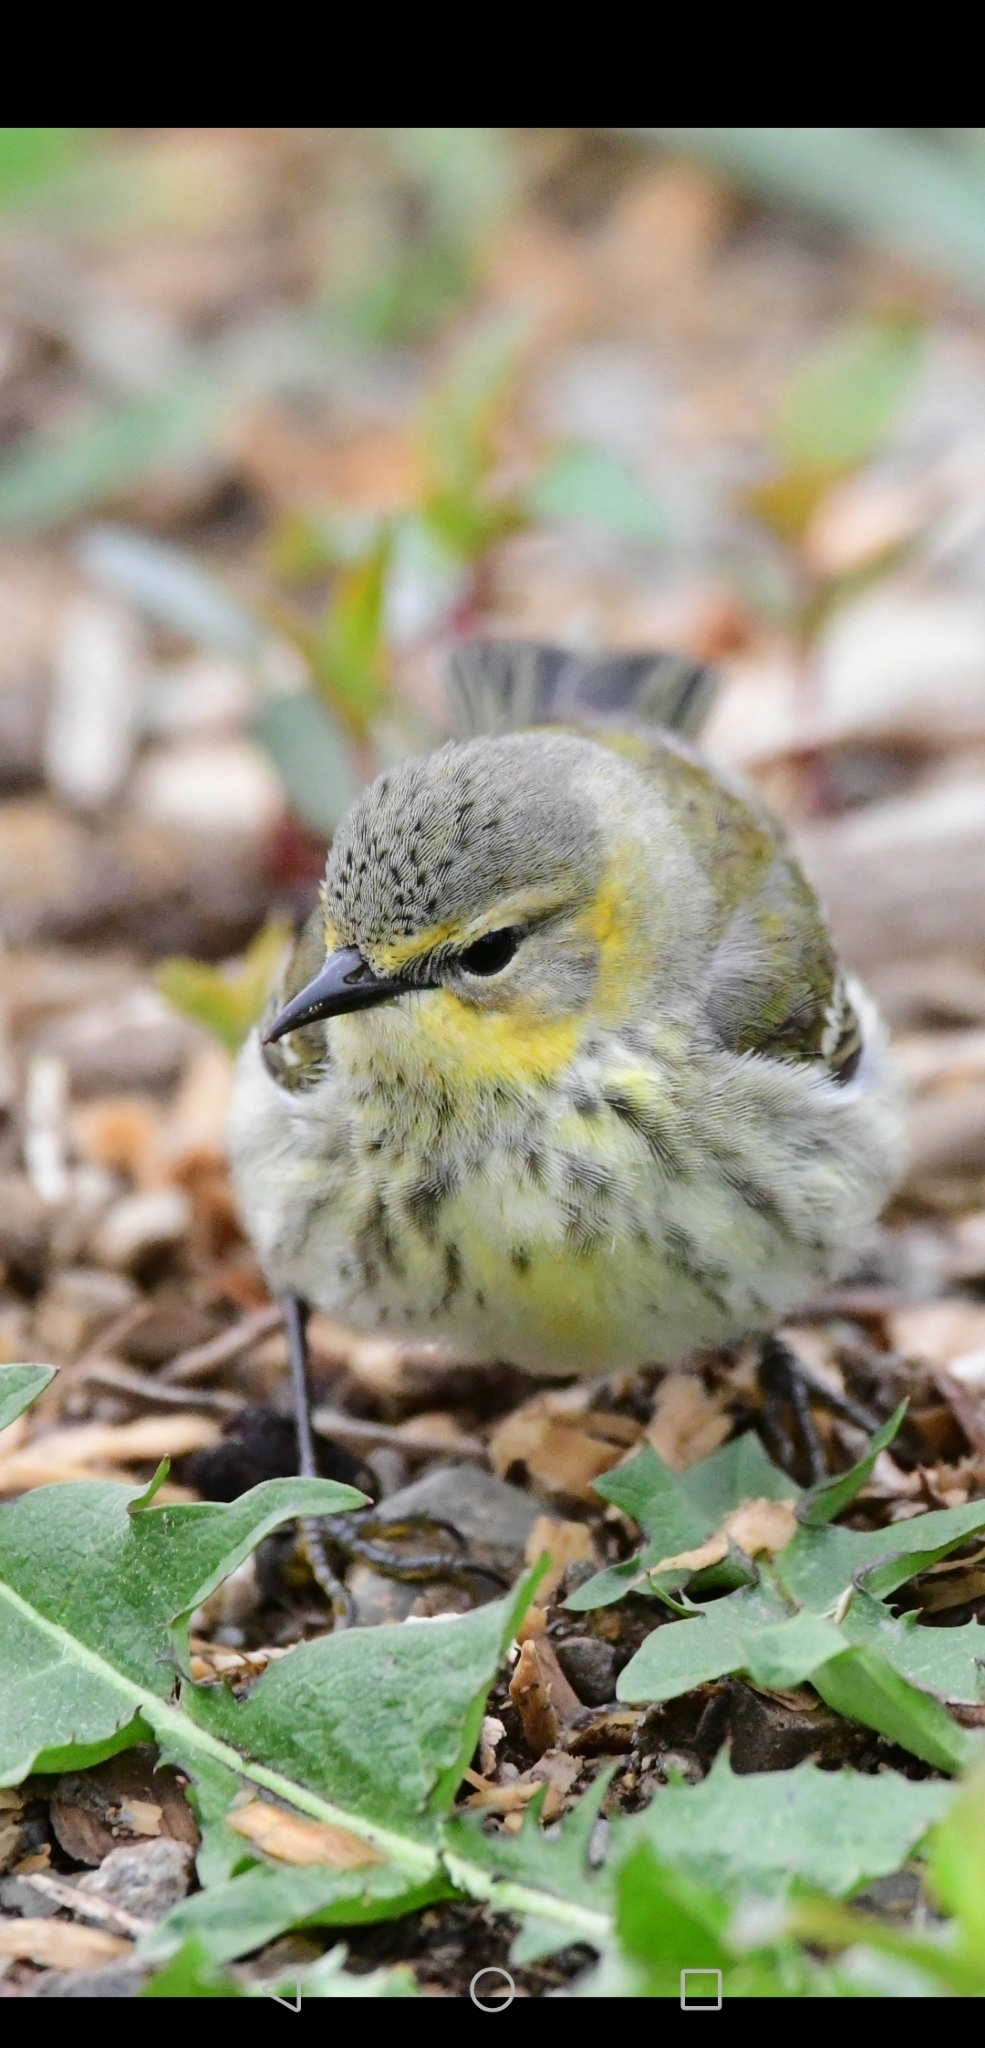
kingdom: Animalia
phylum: Chordata
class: Aves
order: Passeriformes
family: Parulidae
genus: Setophaga
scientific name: Setophaga tigrina
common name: Cape may warbler
